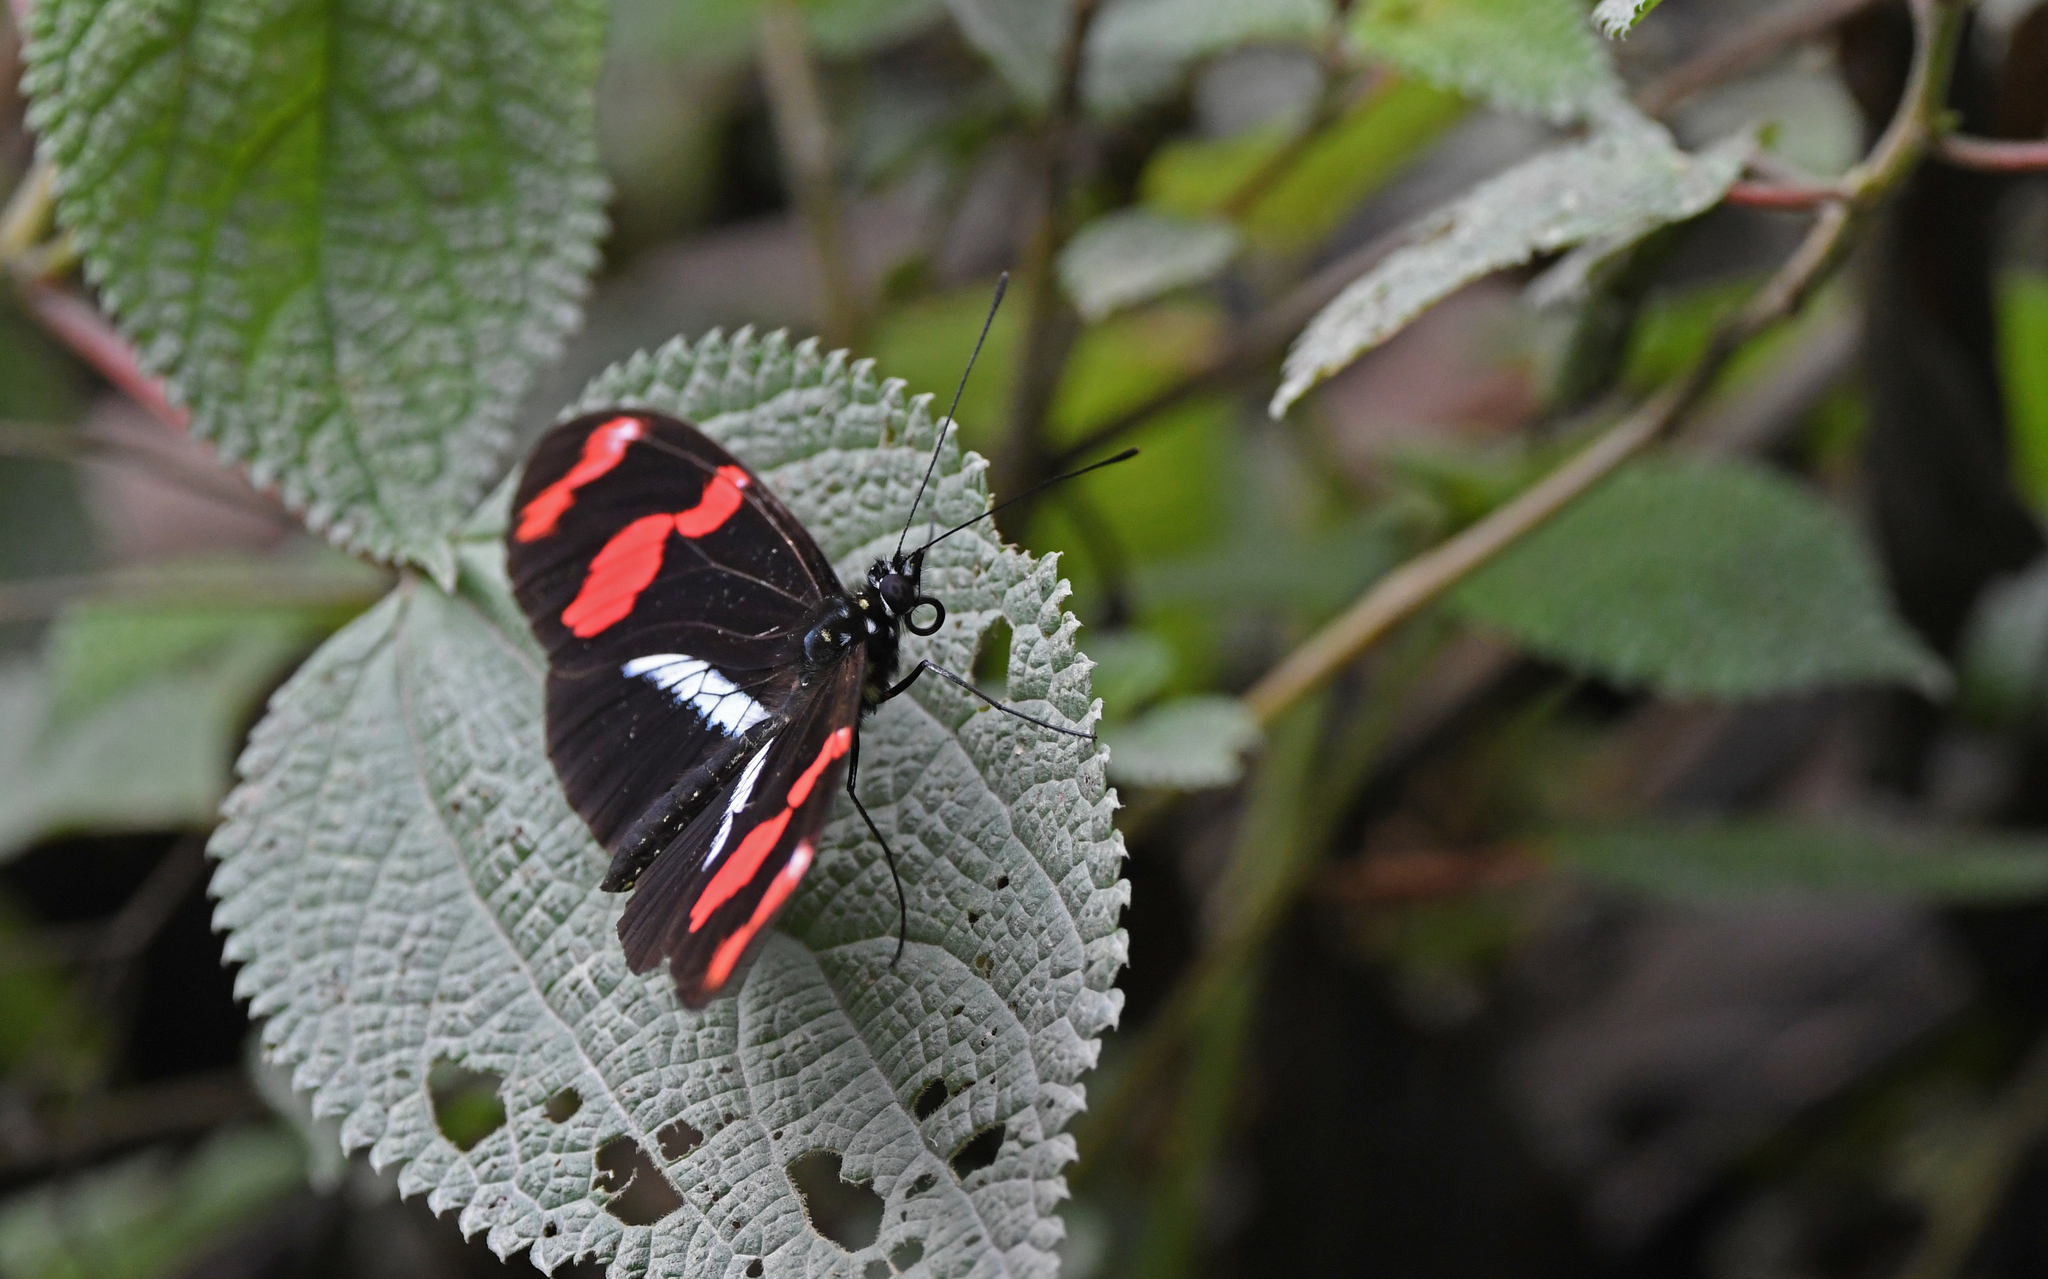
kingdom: Animalia
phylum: Arthropoda
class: Insecta
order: Lepidoptera
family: Nymphalidae
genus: Heliconius
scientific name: Heliconius telesiphe
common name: Telesiphe longwing
